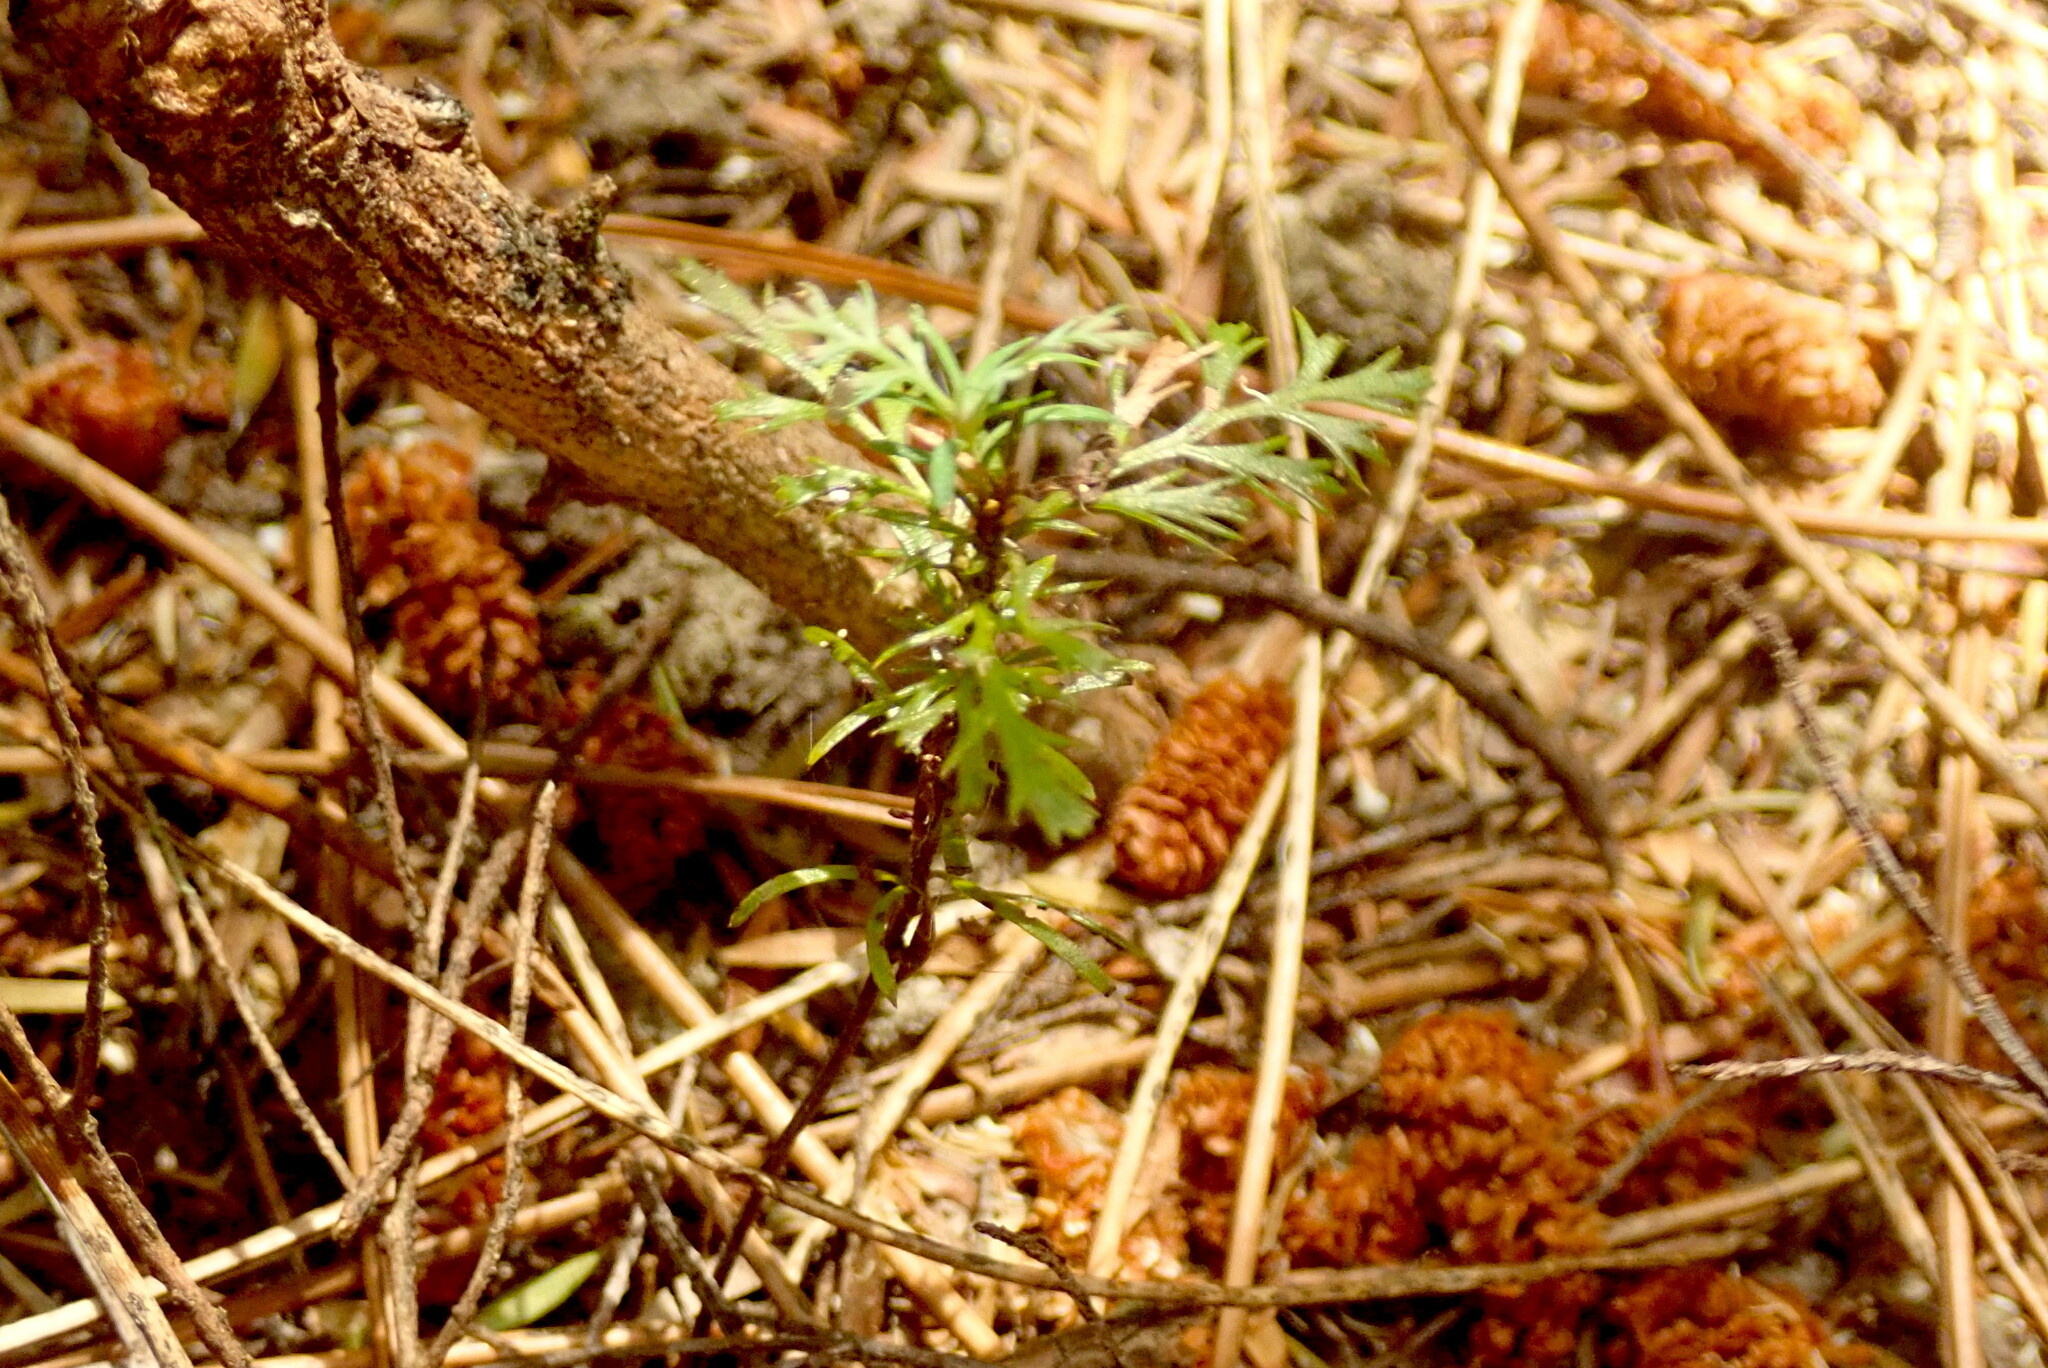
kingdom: Plantae
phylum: Tracheophyta
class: Pinopsida
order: Pinales
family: Phyllocladaceae
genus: Phyllocladus
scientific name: Phyllocladus trichomanoides
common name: Celery pine
